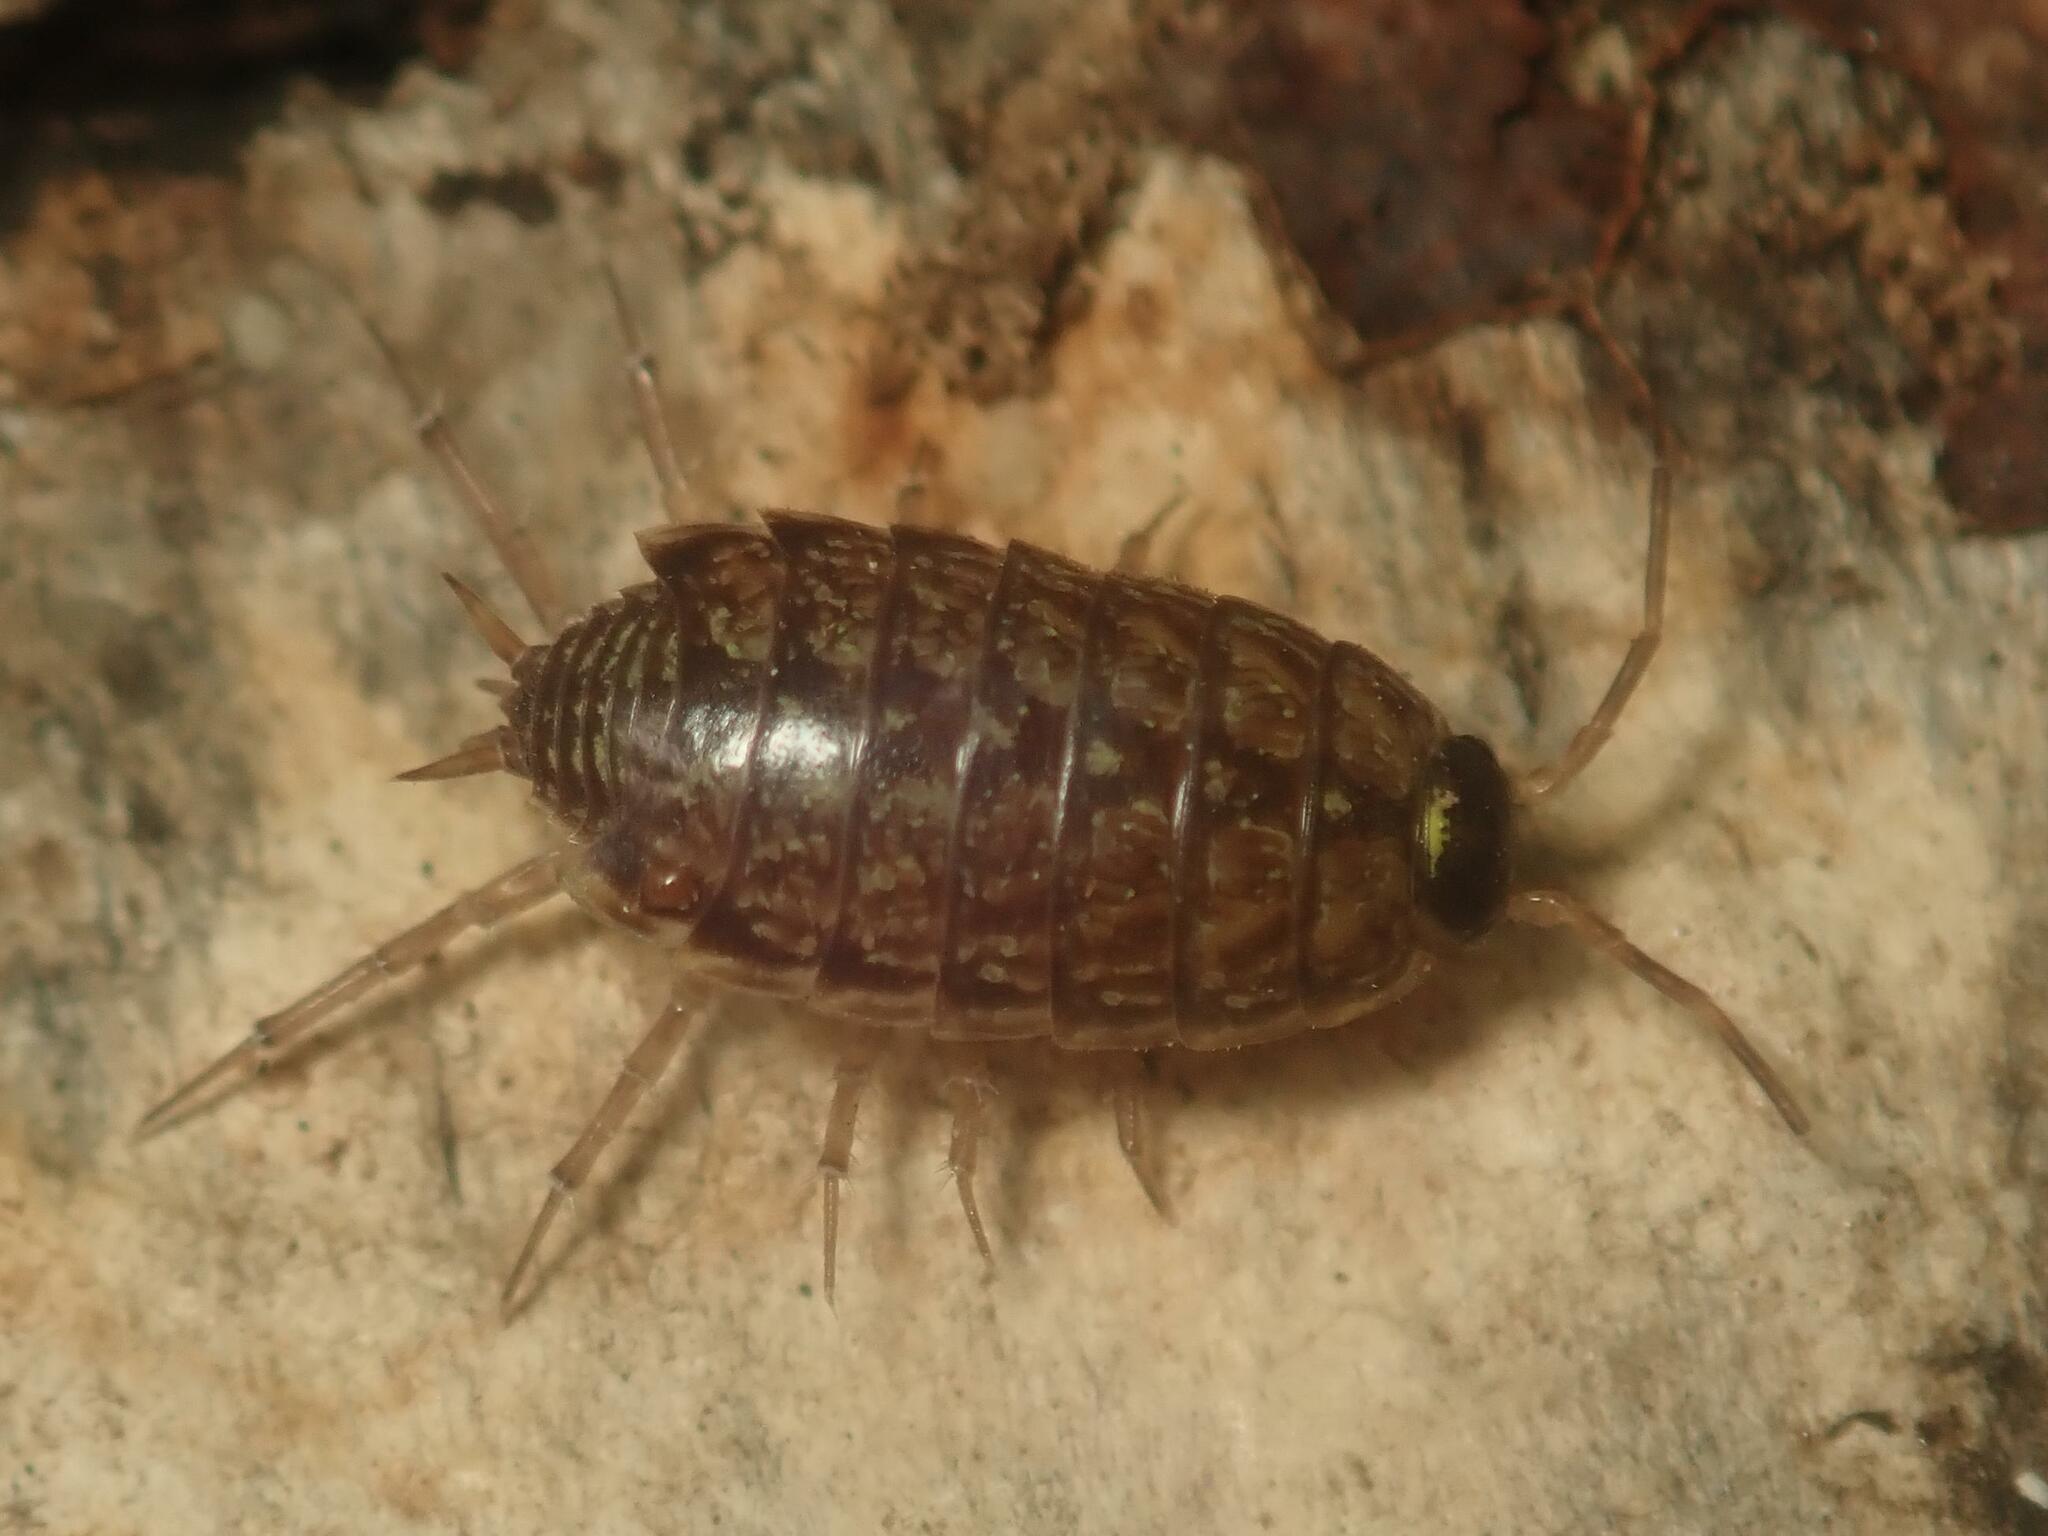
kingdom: Animalia
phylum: Arthropoda
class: Malacostraca
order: Isopoda
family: Philosciidae
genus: Philoscia
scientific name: Philoscia muscorum
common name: Common striped woodlouse
